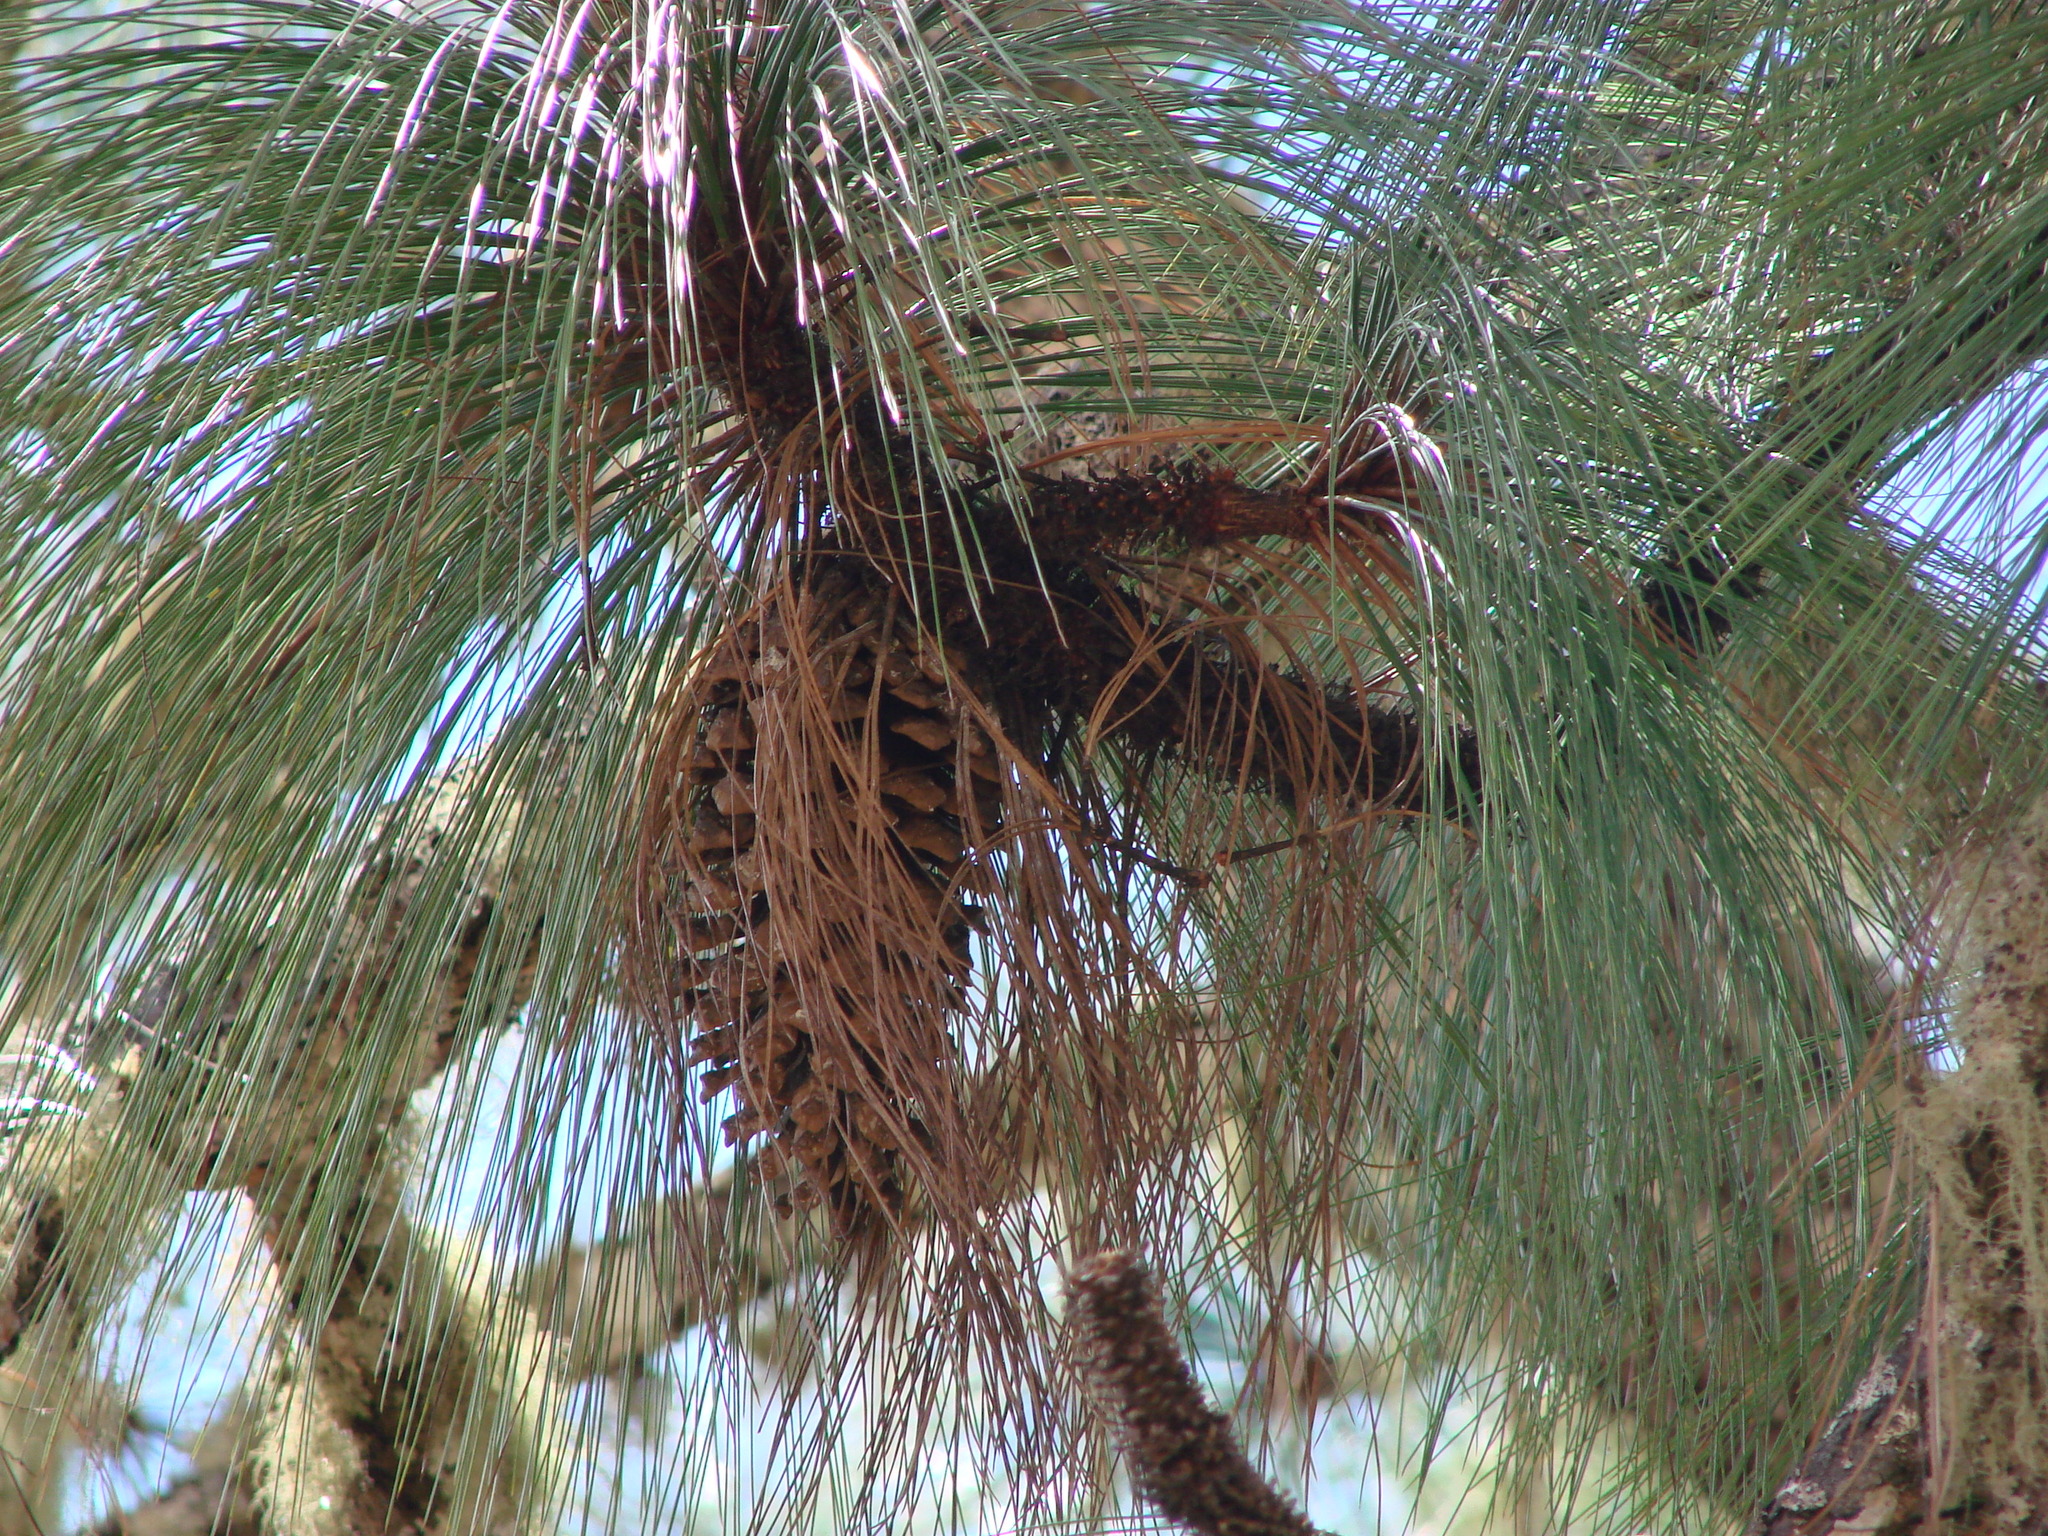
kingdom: Plantae
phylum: Tracheophyta
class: Pinopsida
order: Pinales
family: Pinaceae
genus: Pinus
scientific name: Pinus devoniana
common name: Michoacan pine
